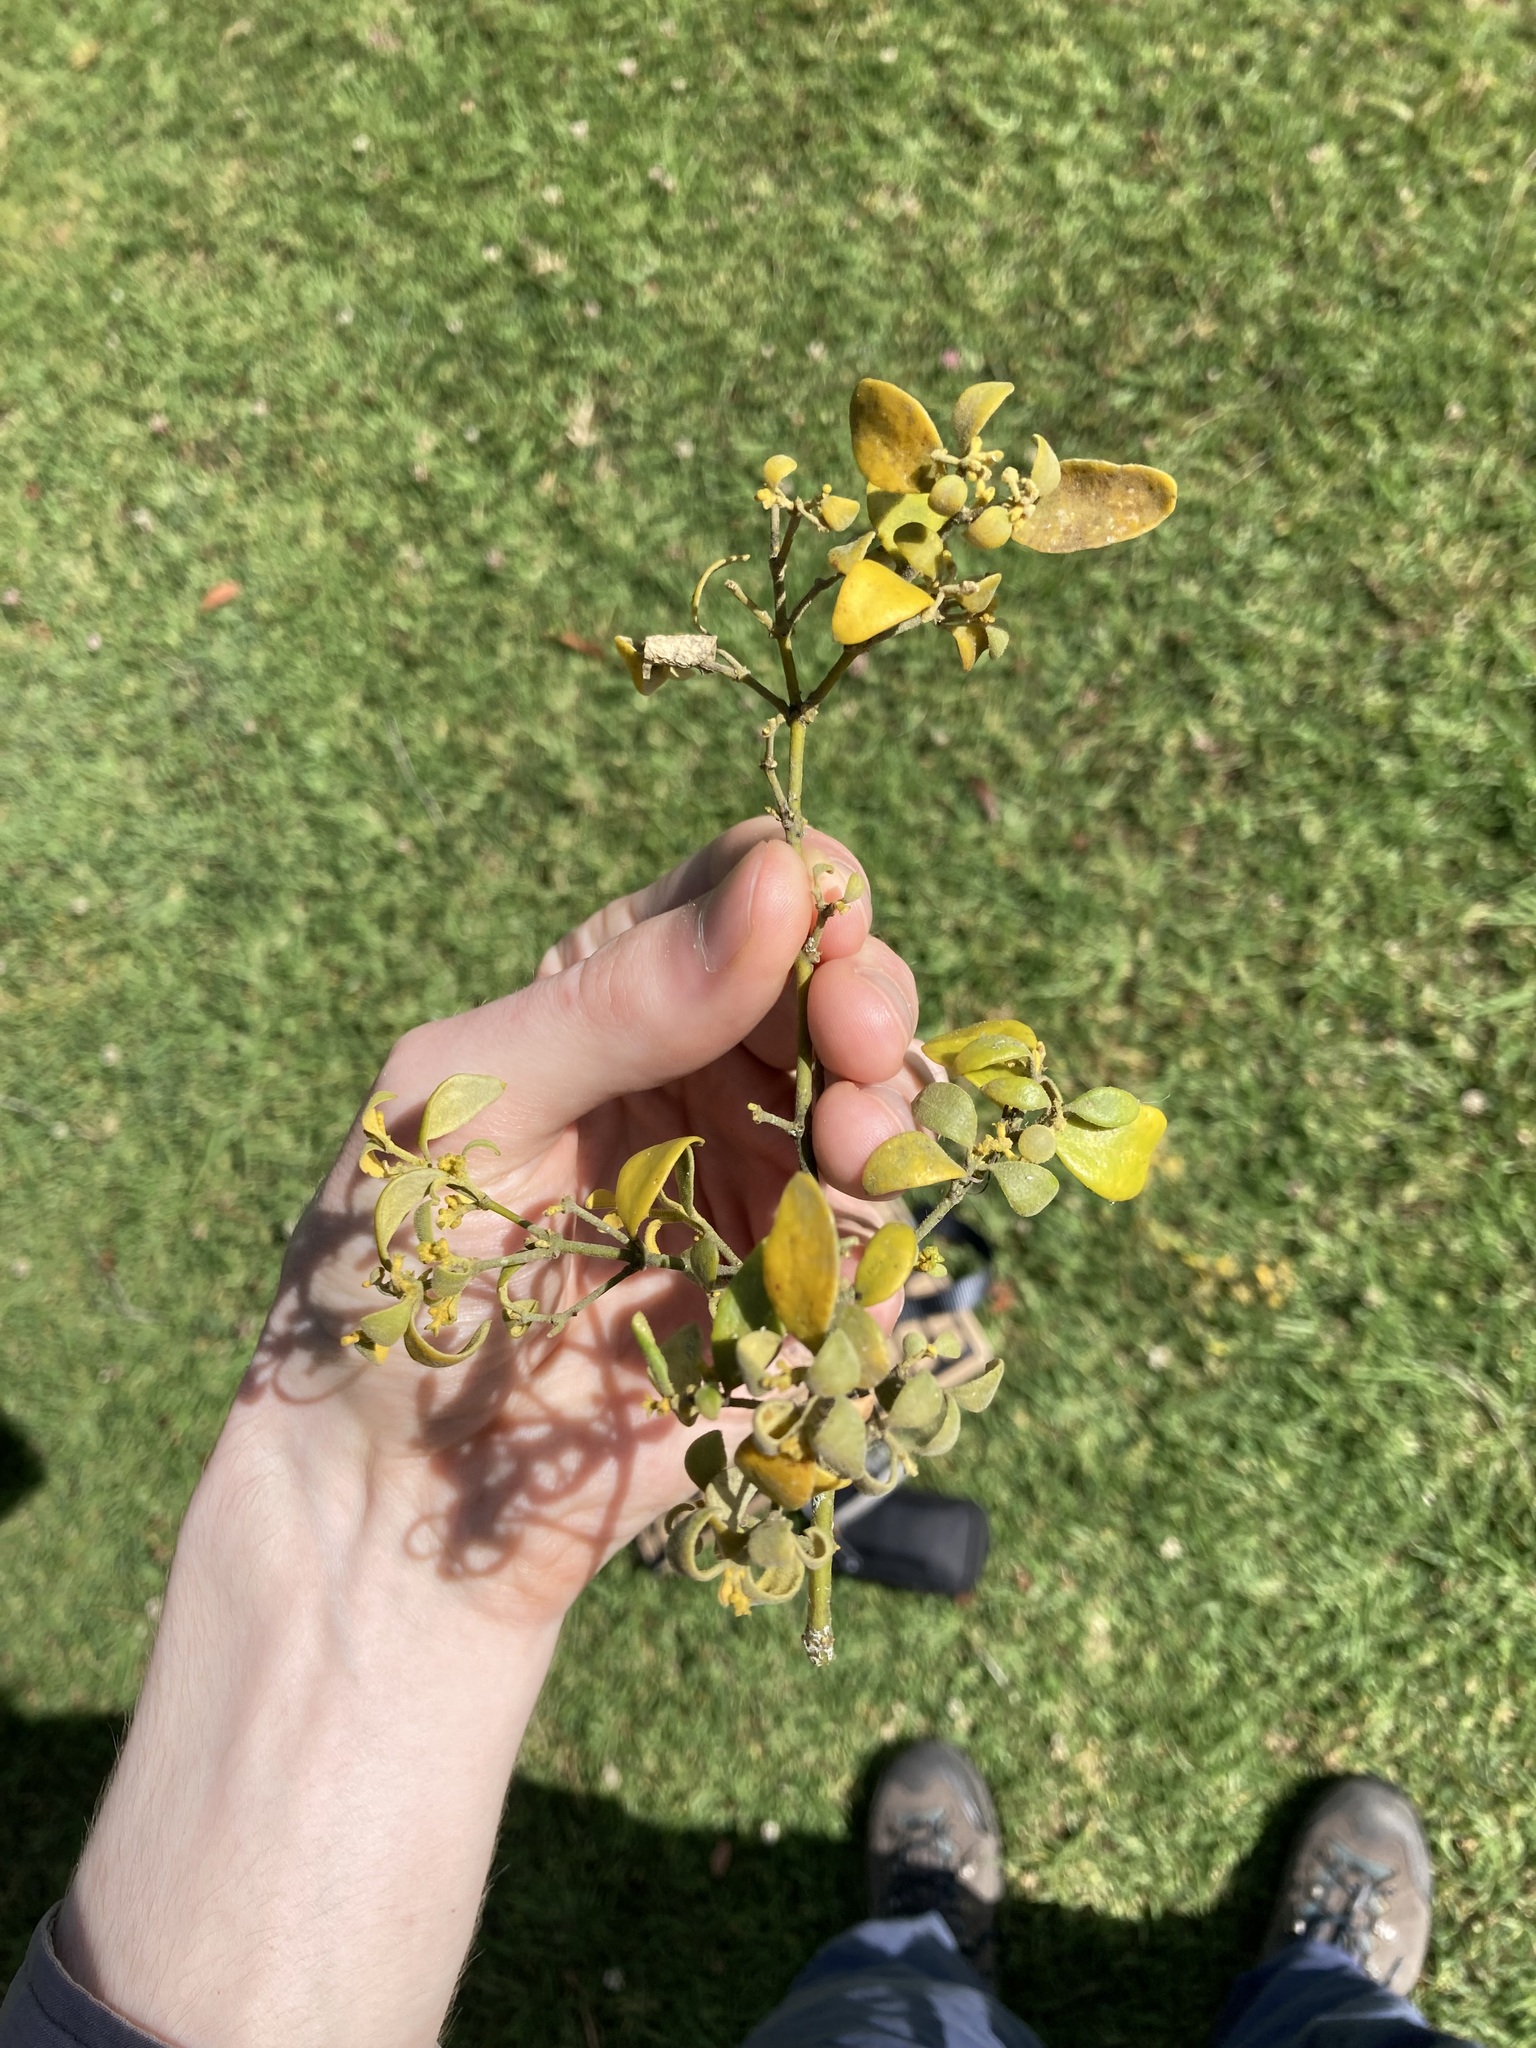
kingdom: Plantae
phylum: Tracheophyta
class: Magnoliopsida
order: Santalales
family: Viscaceae
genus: Notothixos
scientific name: Notothixos subaureus
